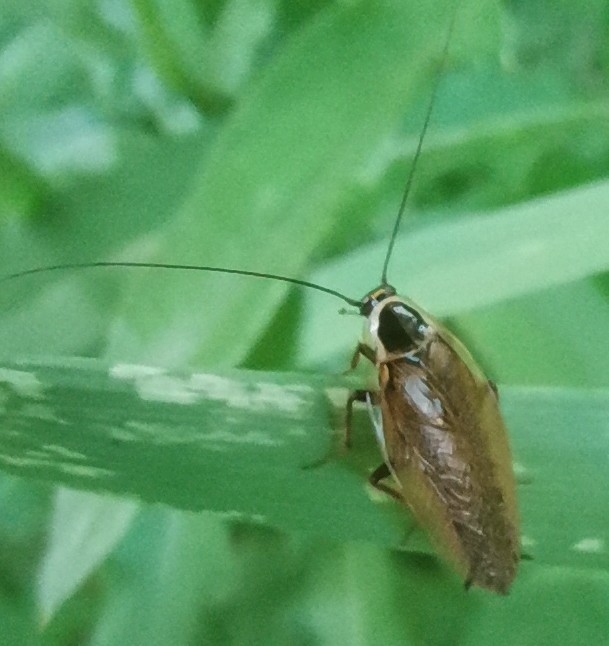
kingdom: Animalia
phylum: Arthropoda
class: Insecta
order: Blattodea
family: Ectobiidae
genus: Ectobius
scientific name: Ectobius sylvestris
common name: Forest cockroach
